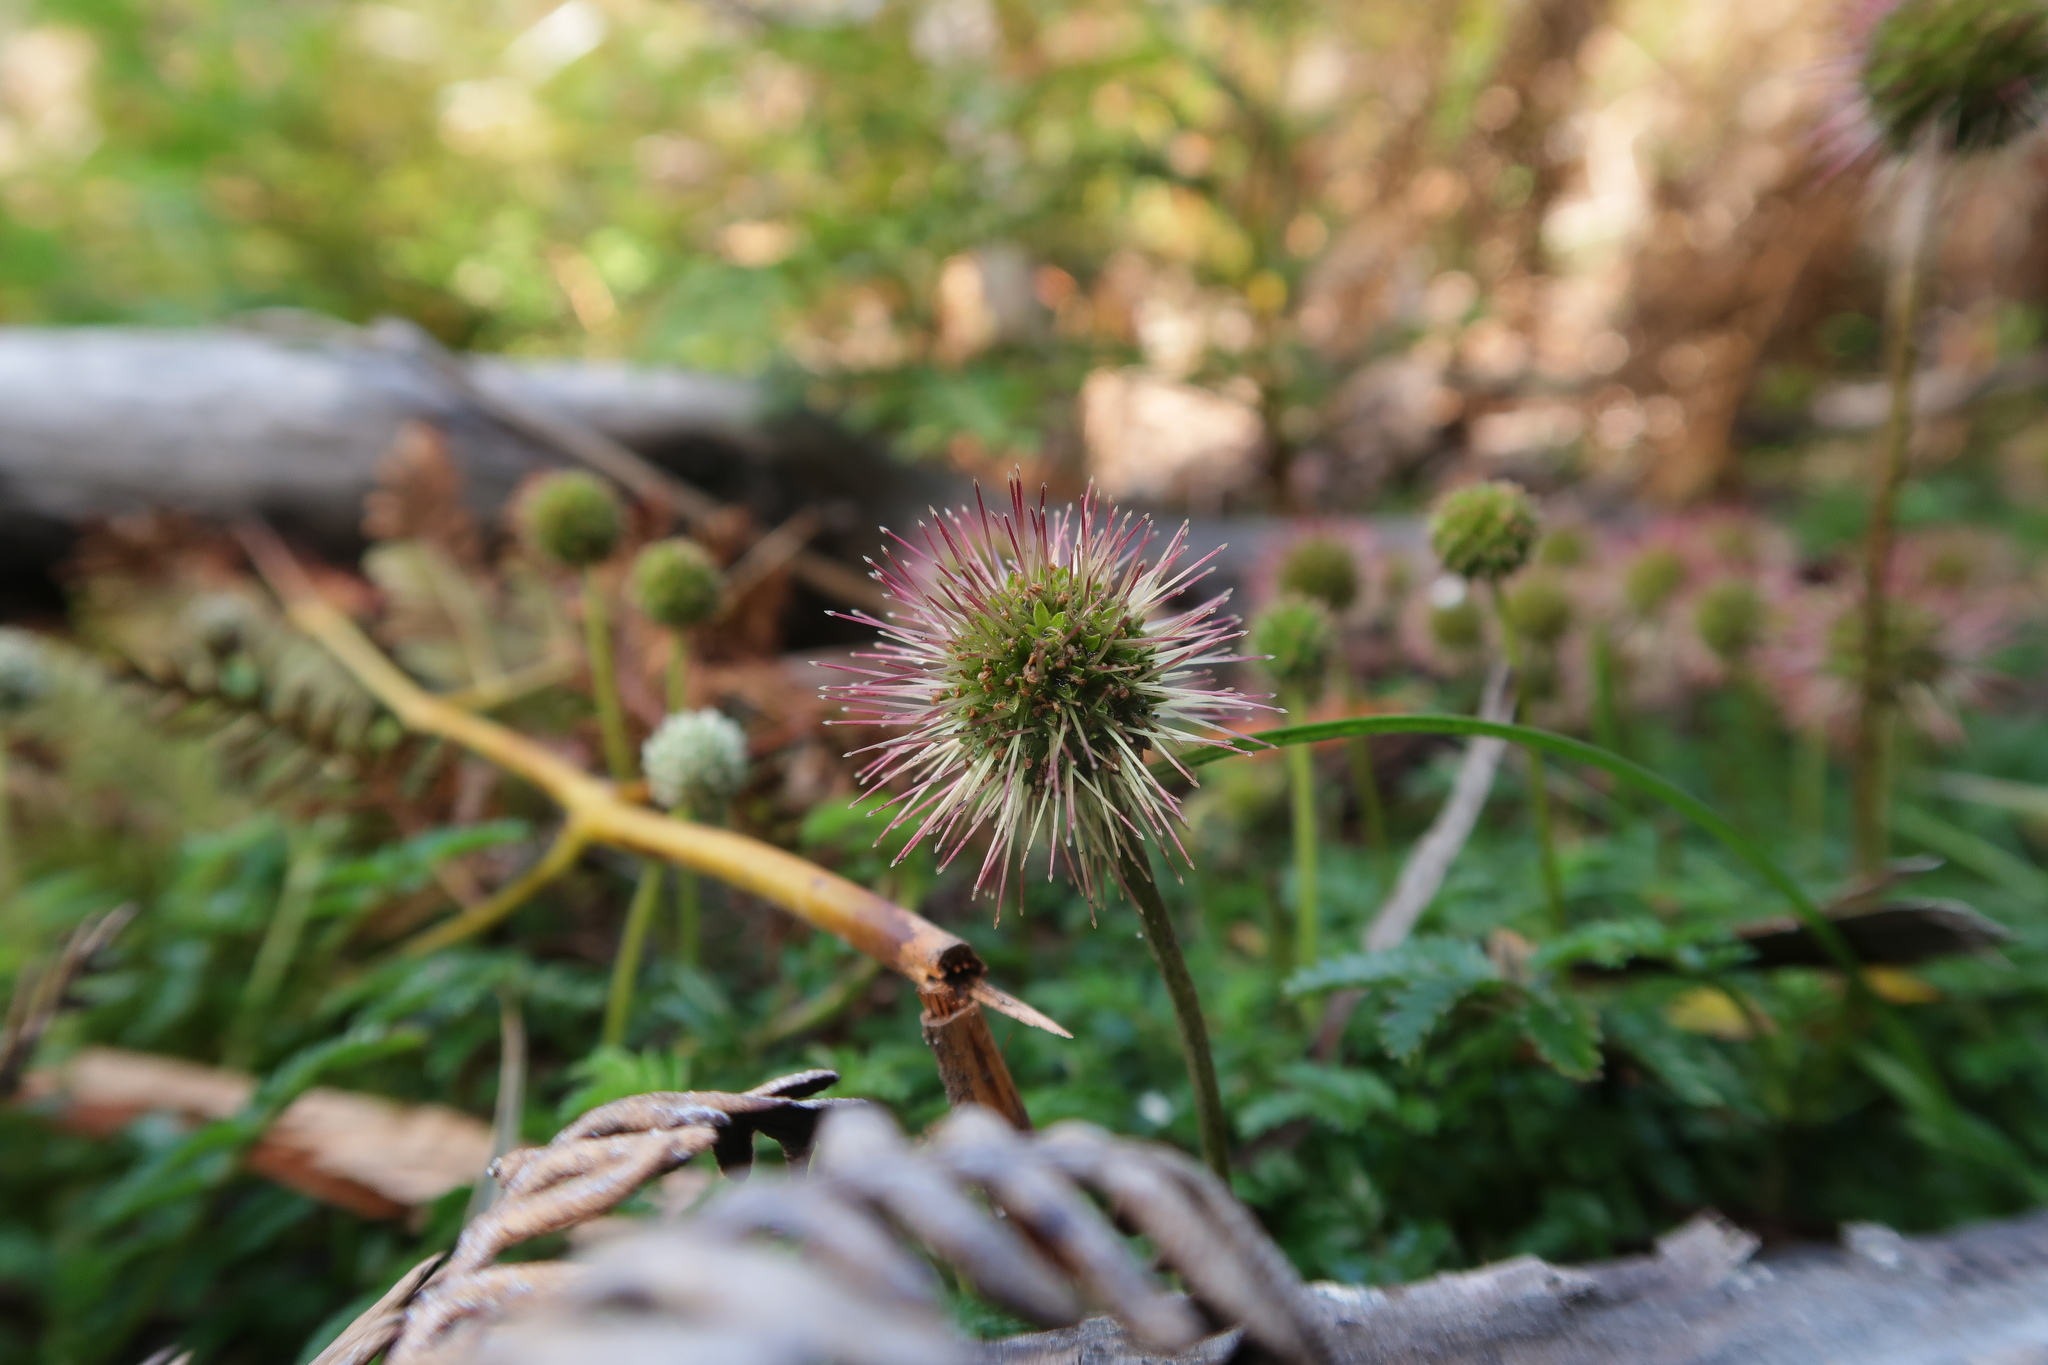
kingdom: Plantae
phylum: Tracheophyta
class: Magnoliopsida
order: Rosales
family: Rosaceae
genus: Acaena
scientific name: Acaena novae-zelandiae
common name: Pirri-pirri-bur
